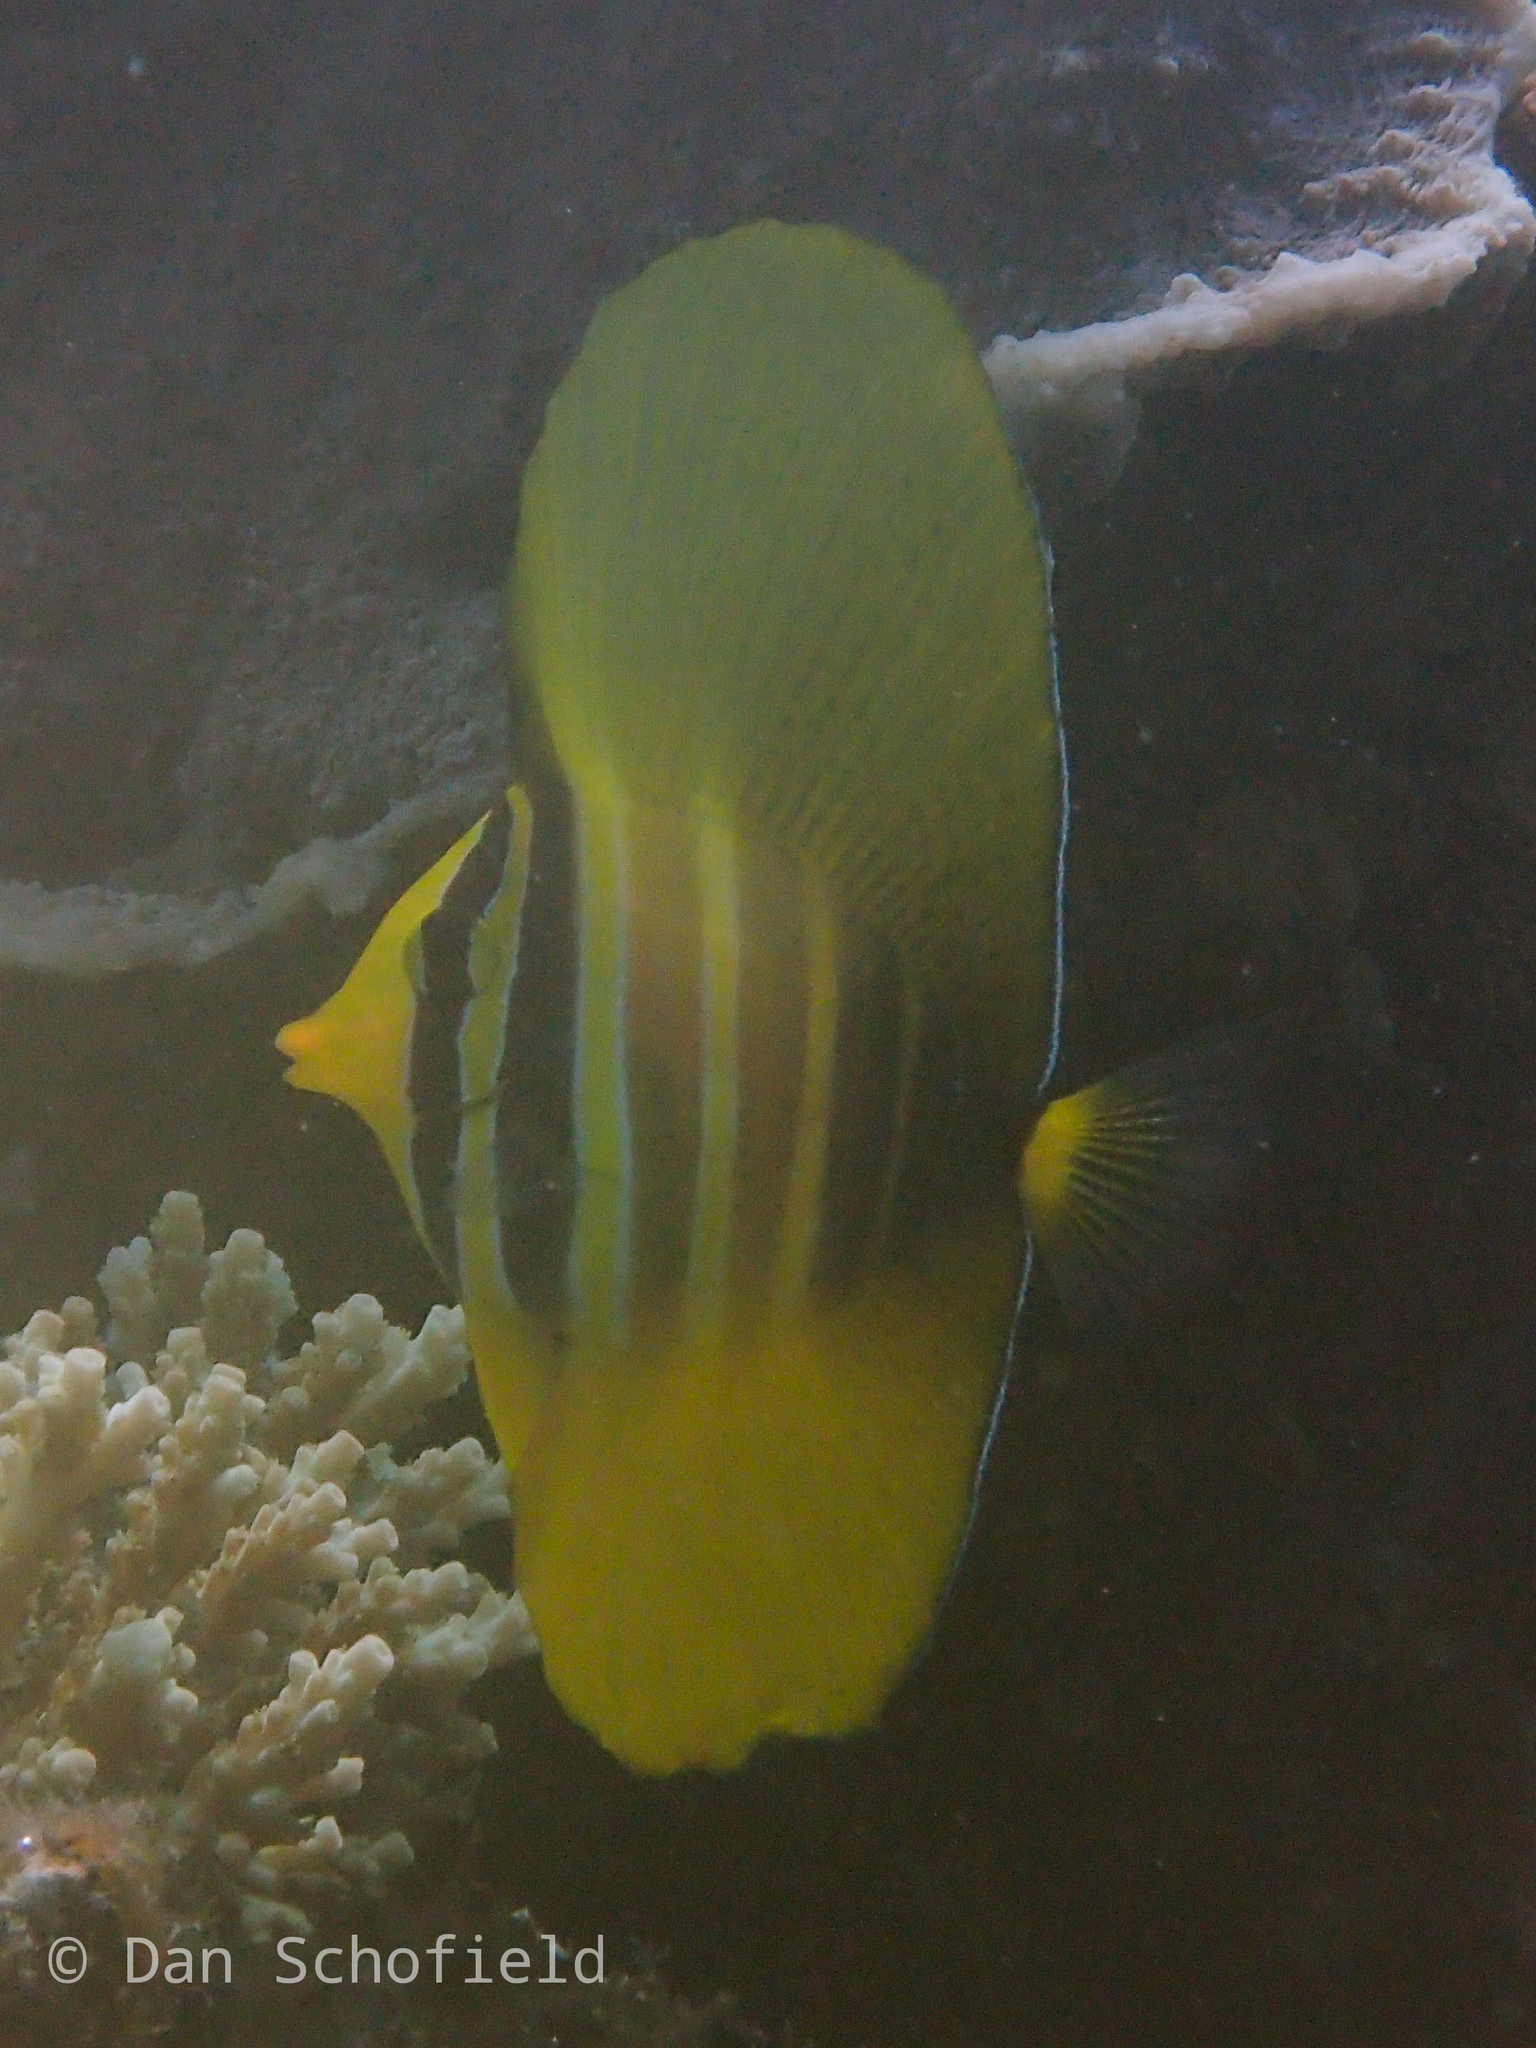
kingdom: Animalia
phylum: Chordata
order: Perciformes
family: Acanthuridae
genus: Zebrasoma
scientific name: Zebrasoma veliferum
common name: Sailfin surgeonfish
